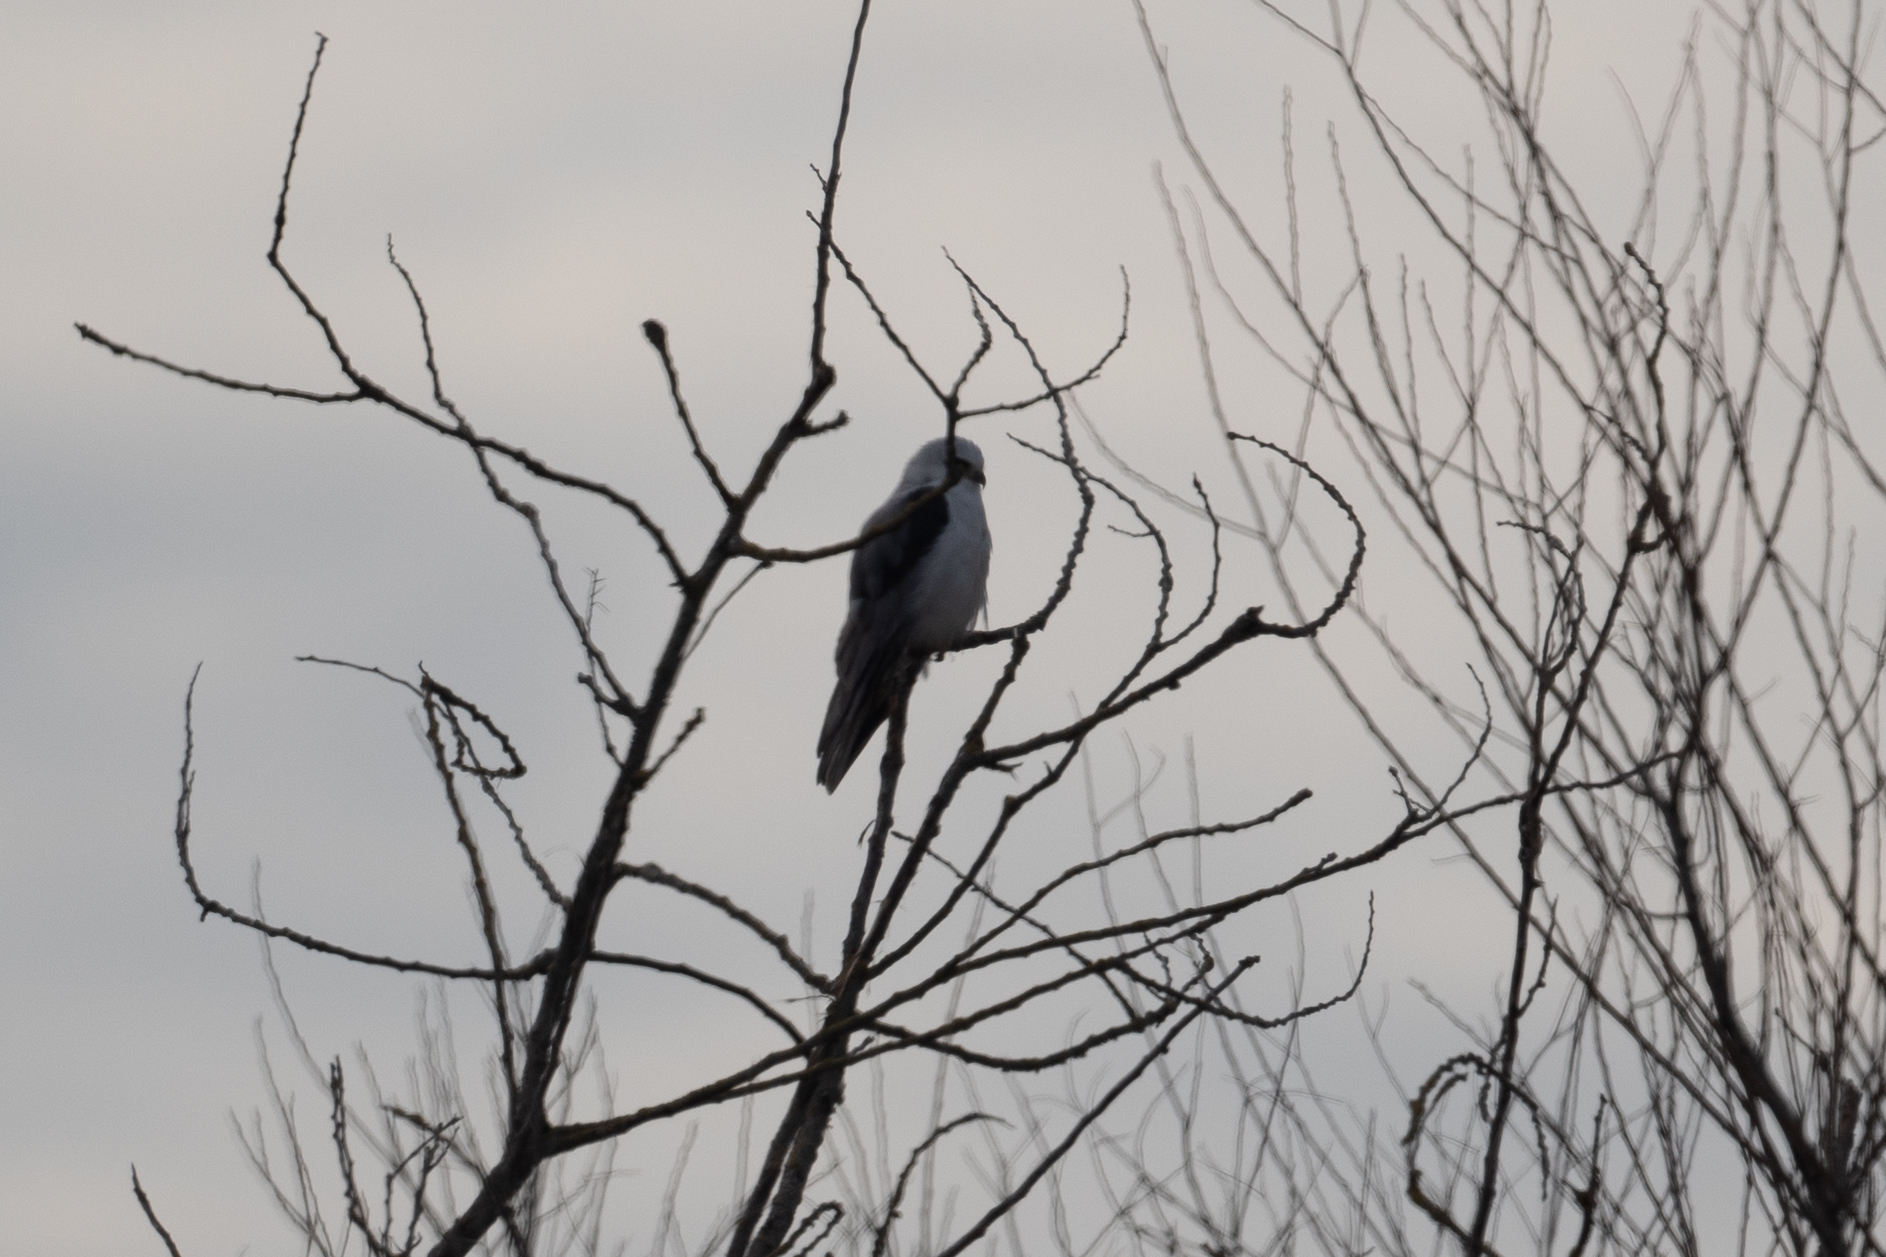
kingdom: Animalia
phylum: Chordata
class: Aves
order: Accipitriformes
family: Accipitridae
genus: Elanus
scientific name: Elanus leucurus
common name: White-tailed kite
